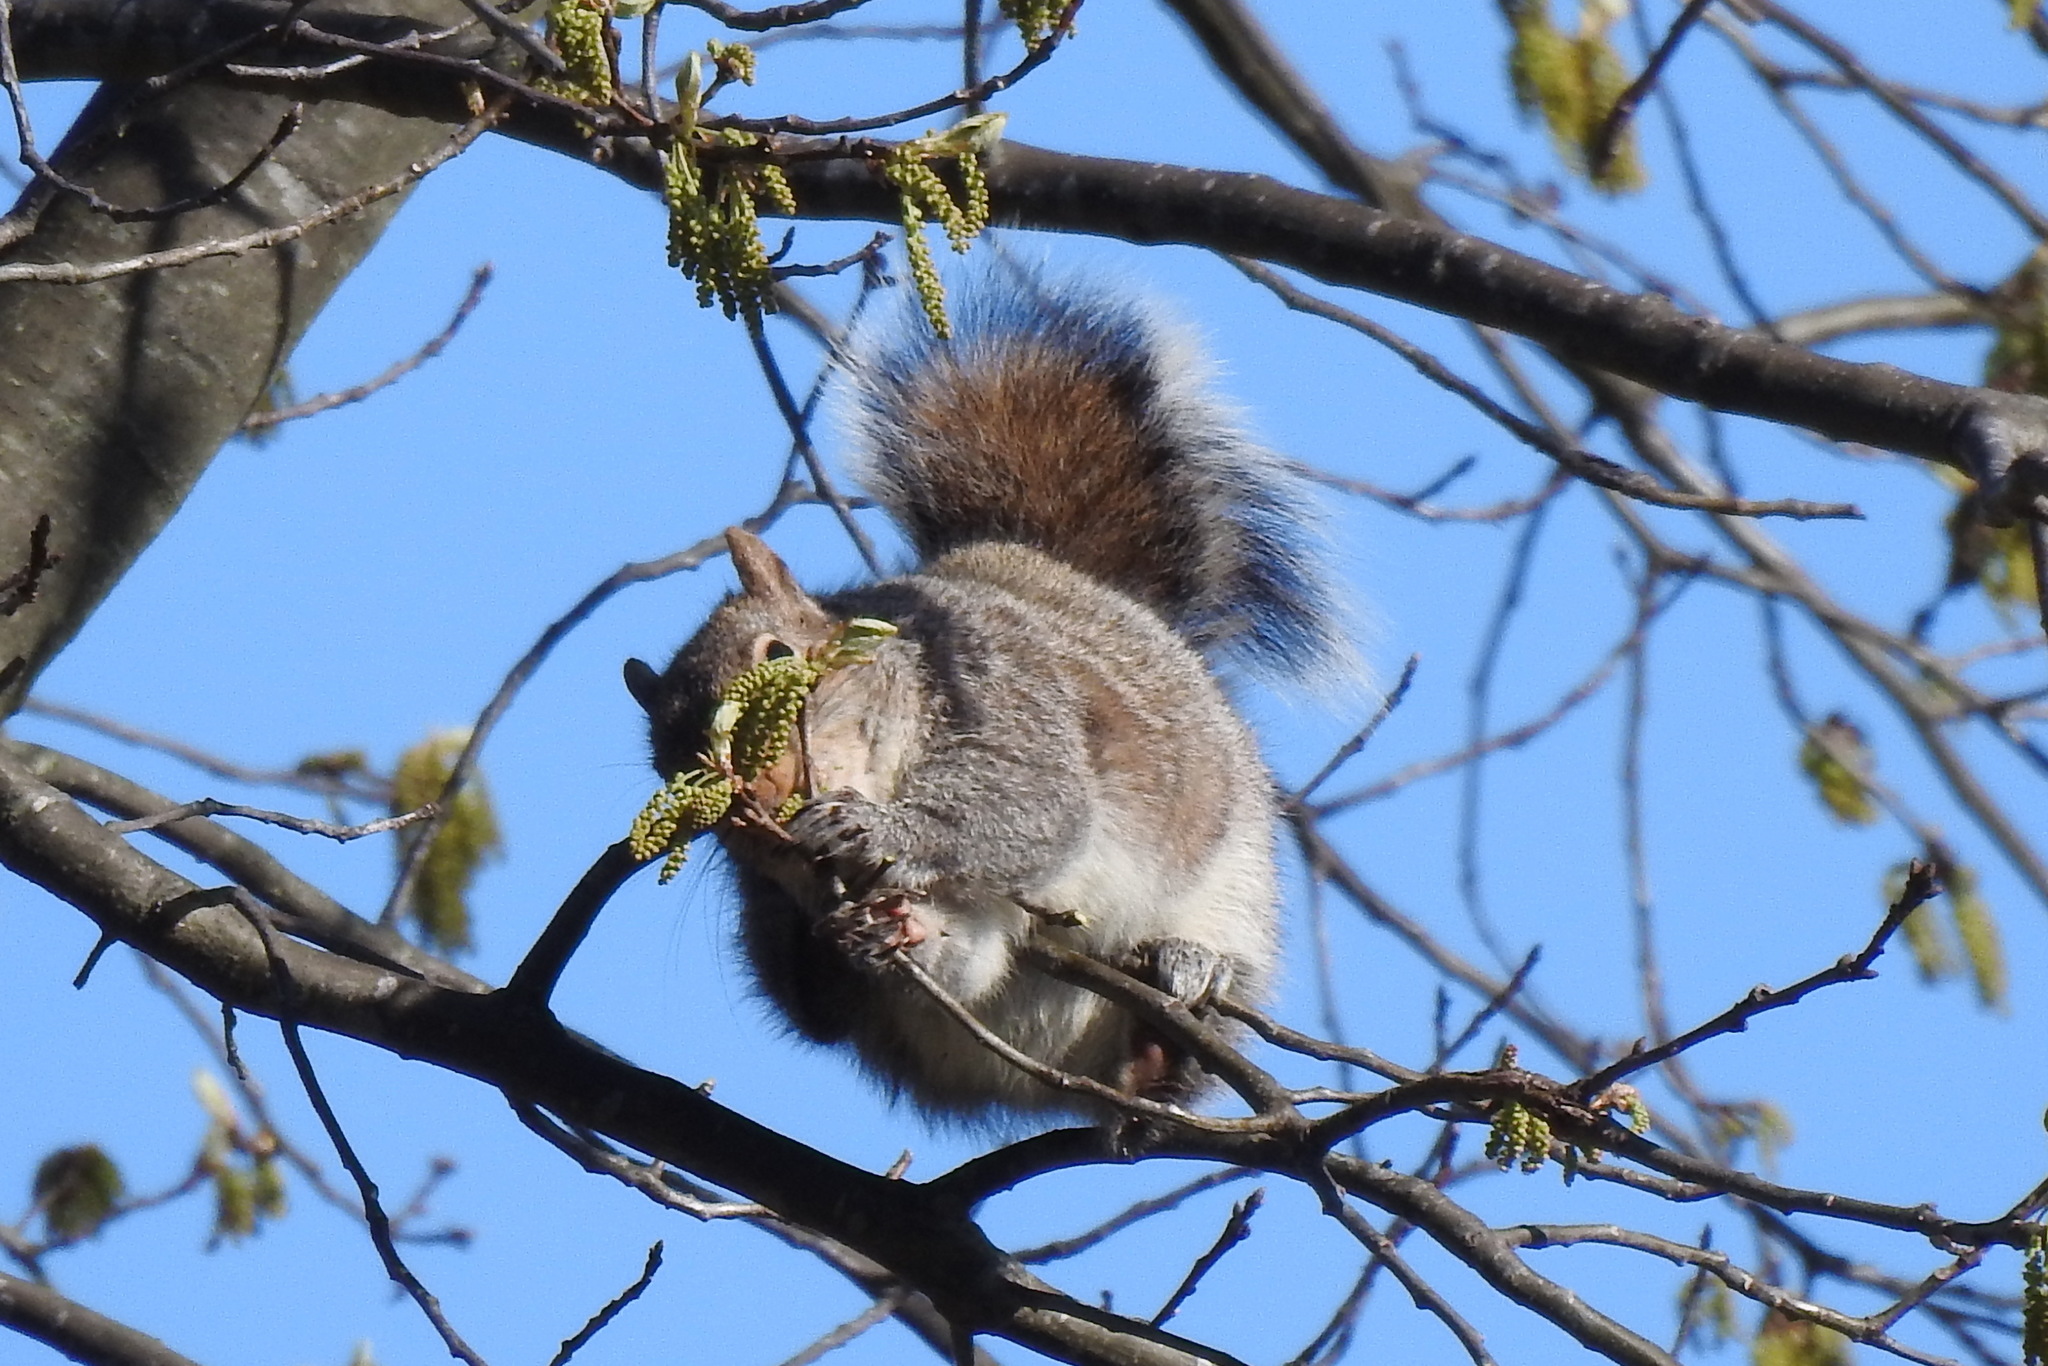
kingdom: Animalia
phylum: Chordata
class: Mammalia
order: Rodentia
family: Sciuridae
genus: Sciurus
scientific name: Sciurus carolinensis
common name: Eastern gray squirrel
